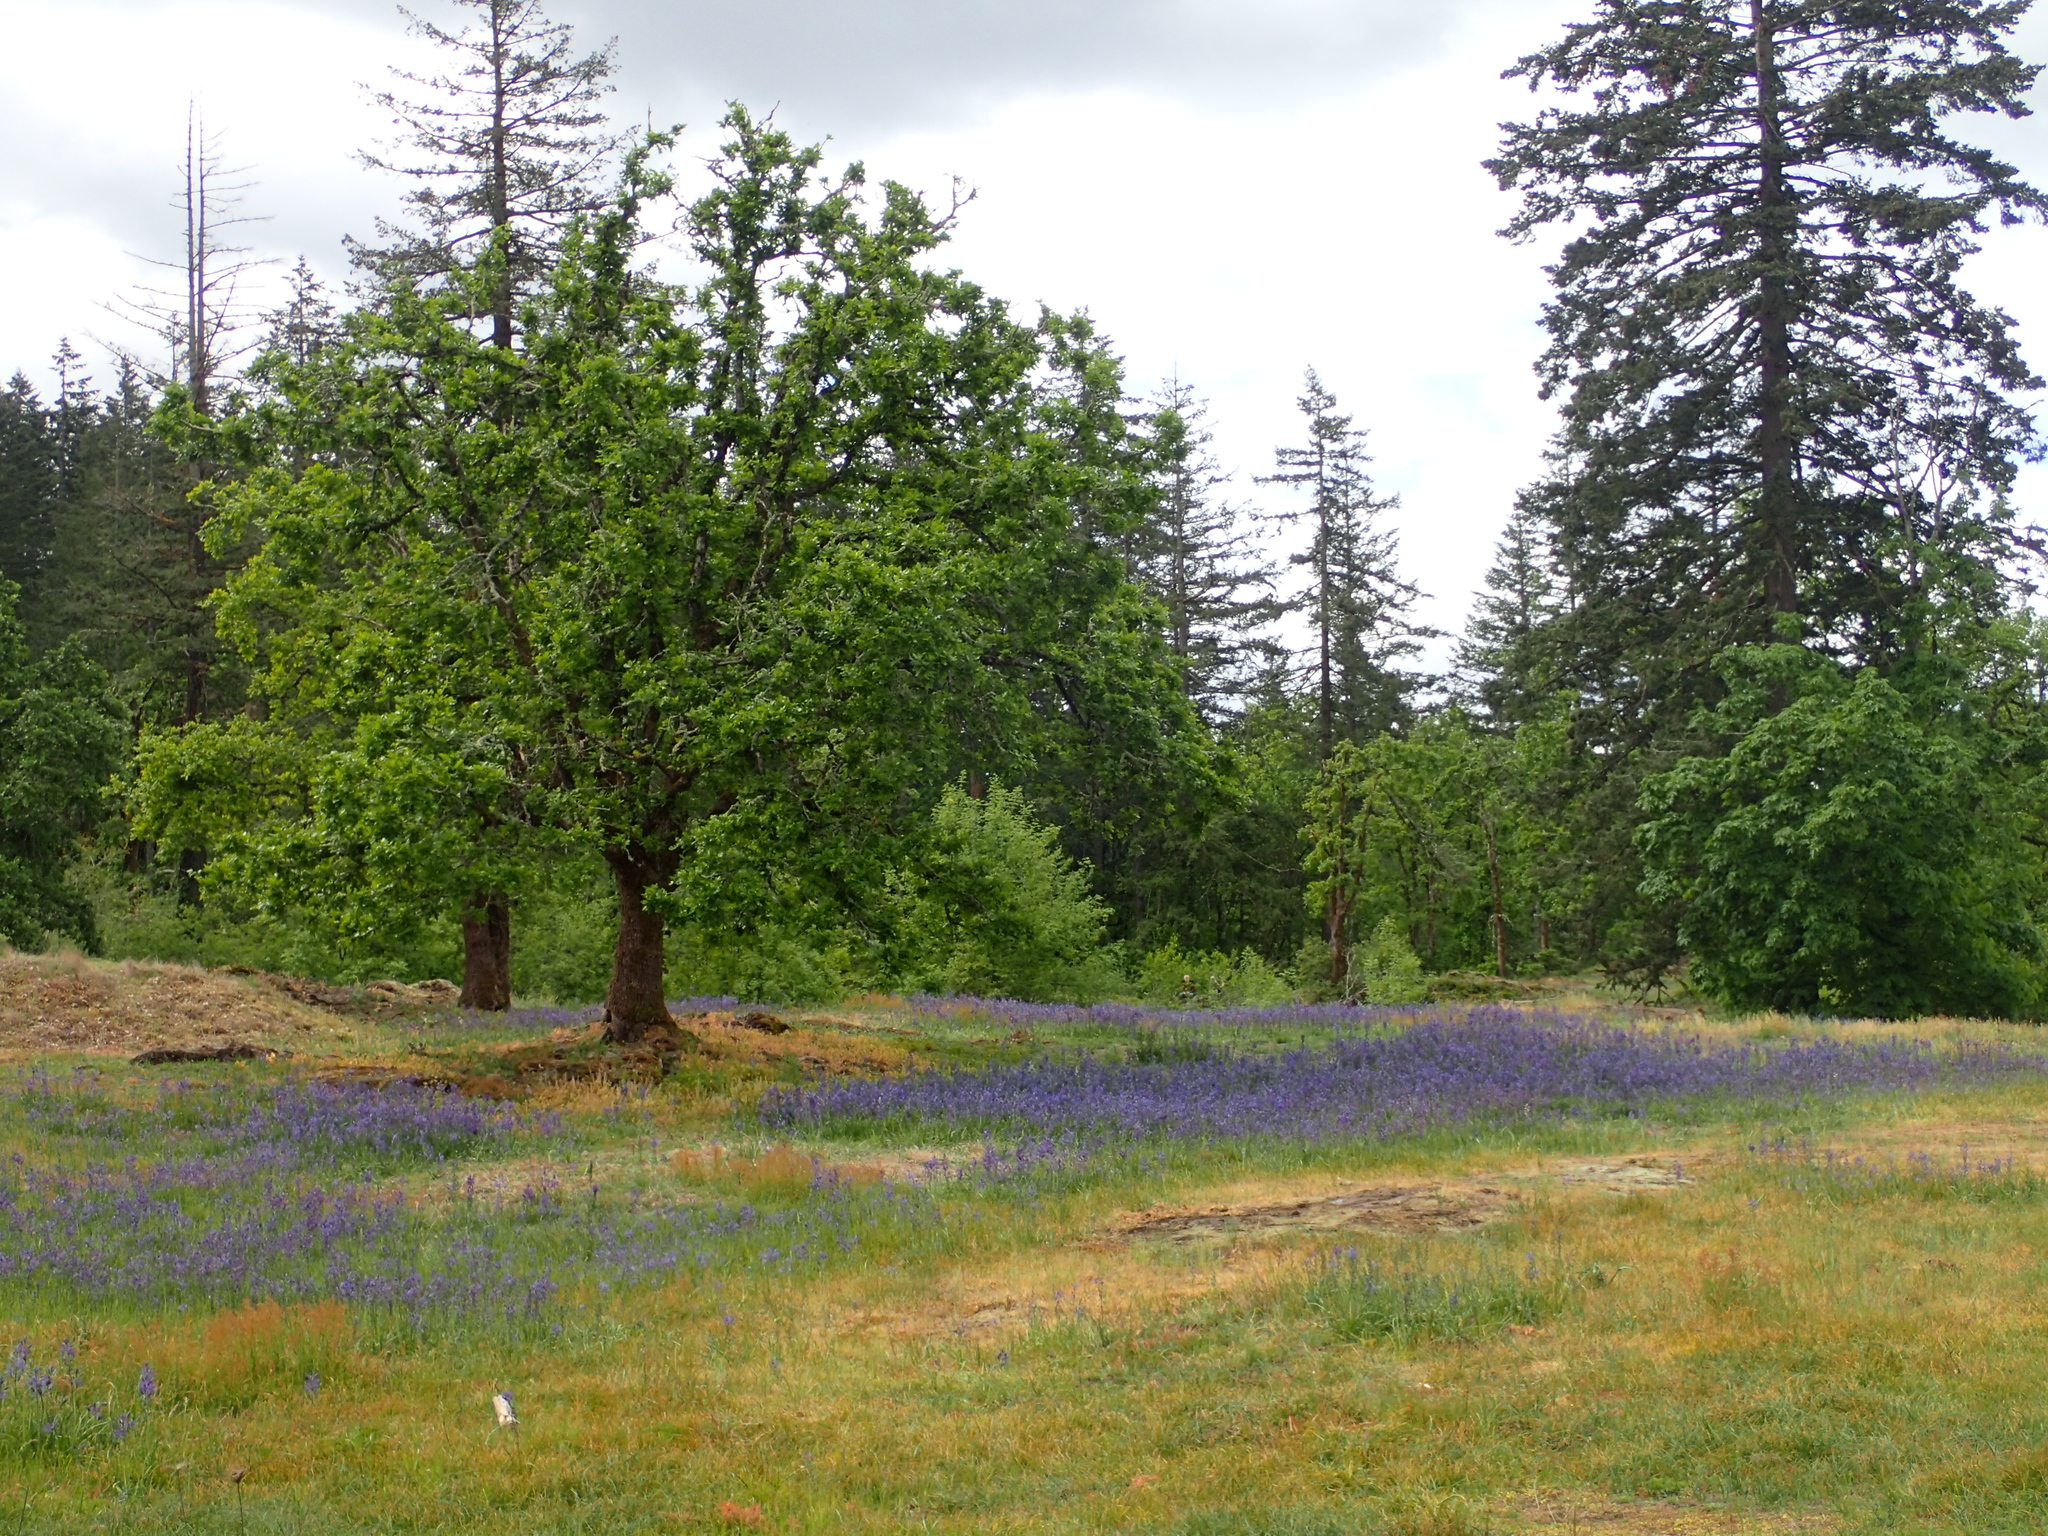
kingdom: Plantae
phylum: Tracheophyta
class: Magnoliopsida
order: Fagales
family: Fagaceae
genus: Quercus
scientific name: Quercus garryana
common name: Garry oak
